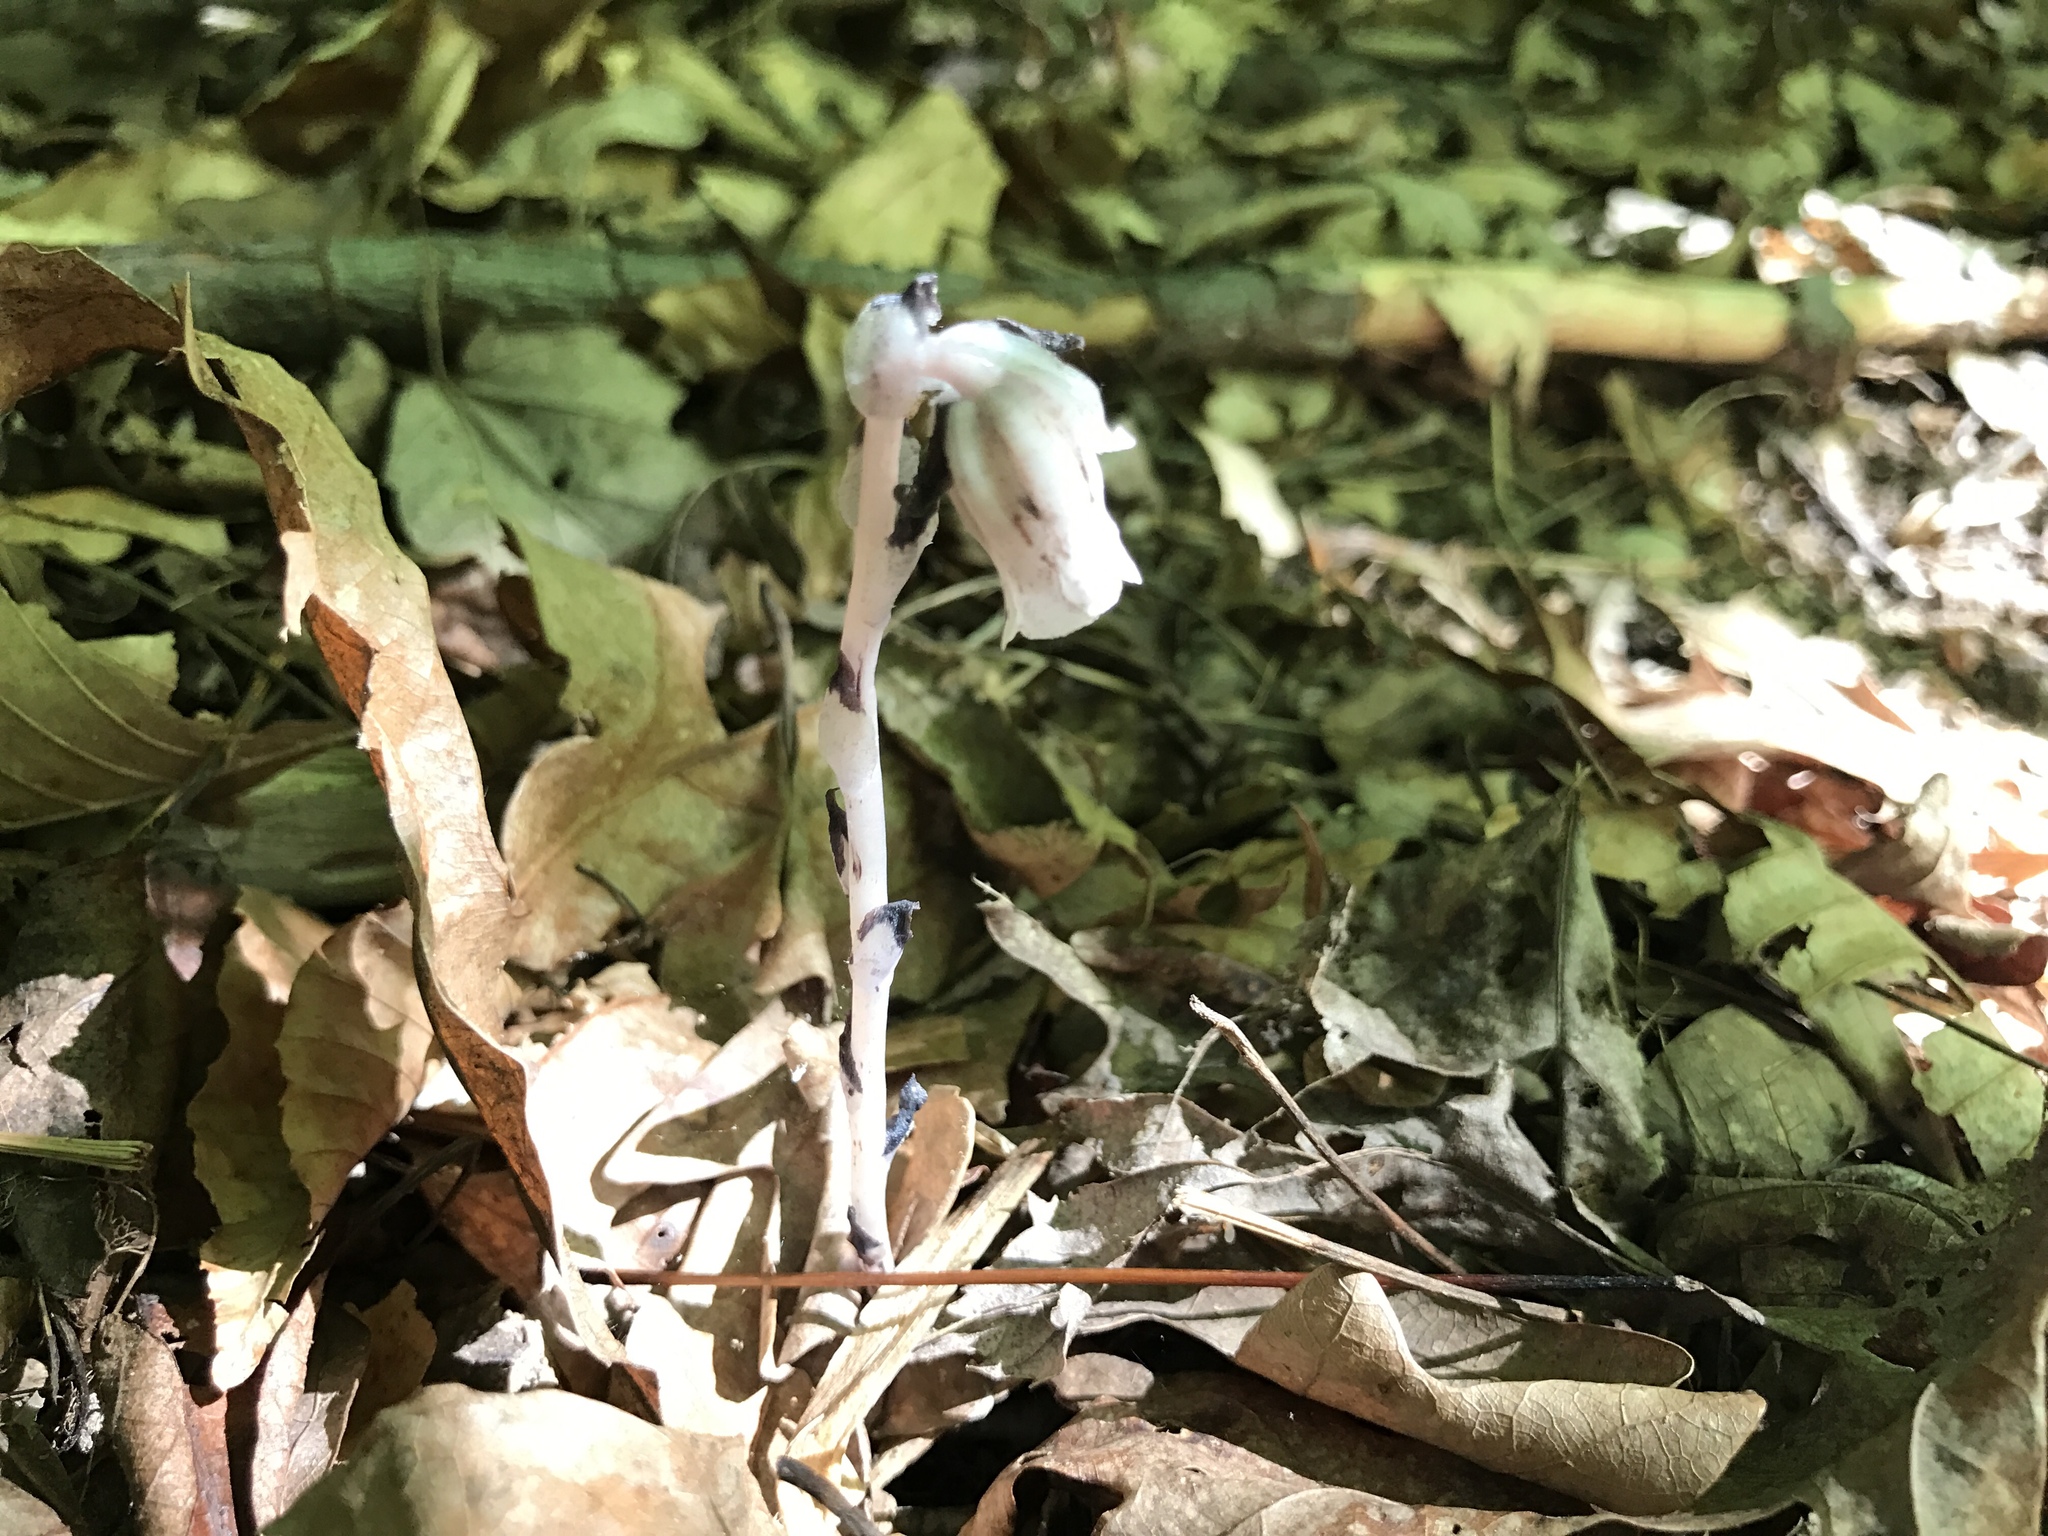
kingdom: Plantae
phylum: Tracheophyta
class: Magnoliopsida
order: Ericales
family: Ericaceae
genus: Monotropa
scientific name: Monotropa uniflora
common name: Convulsion root
